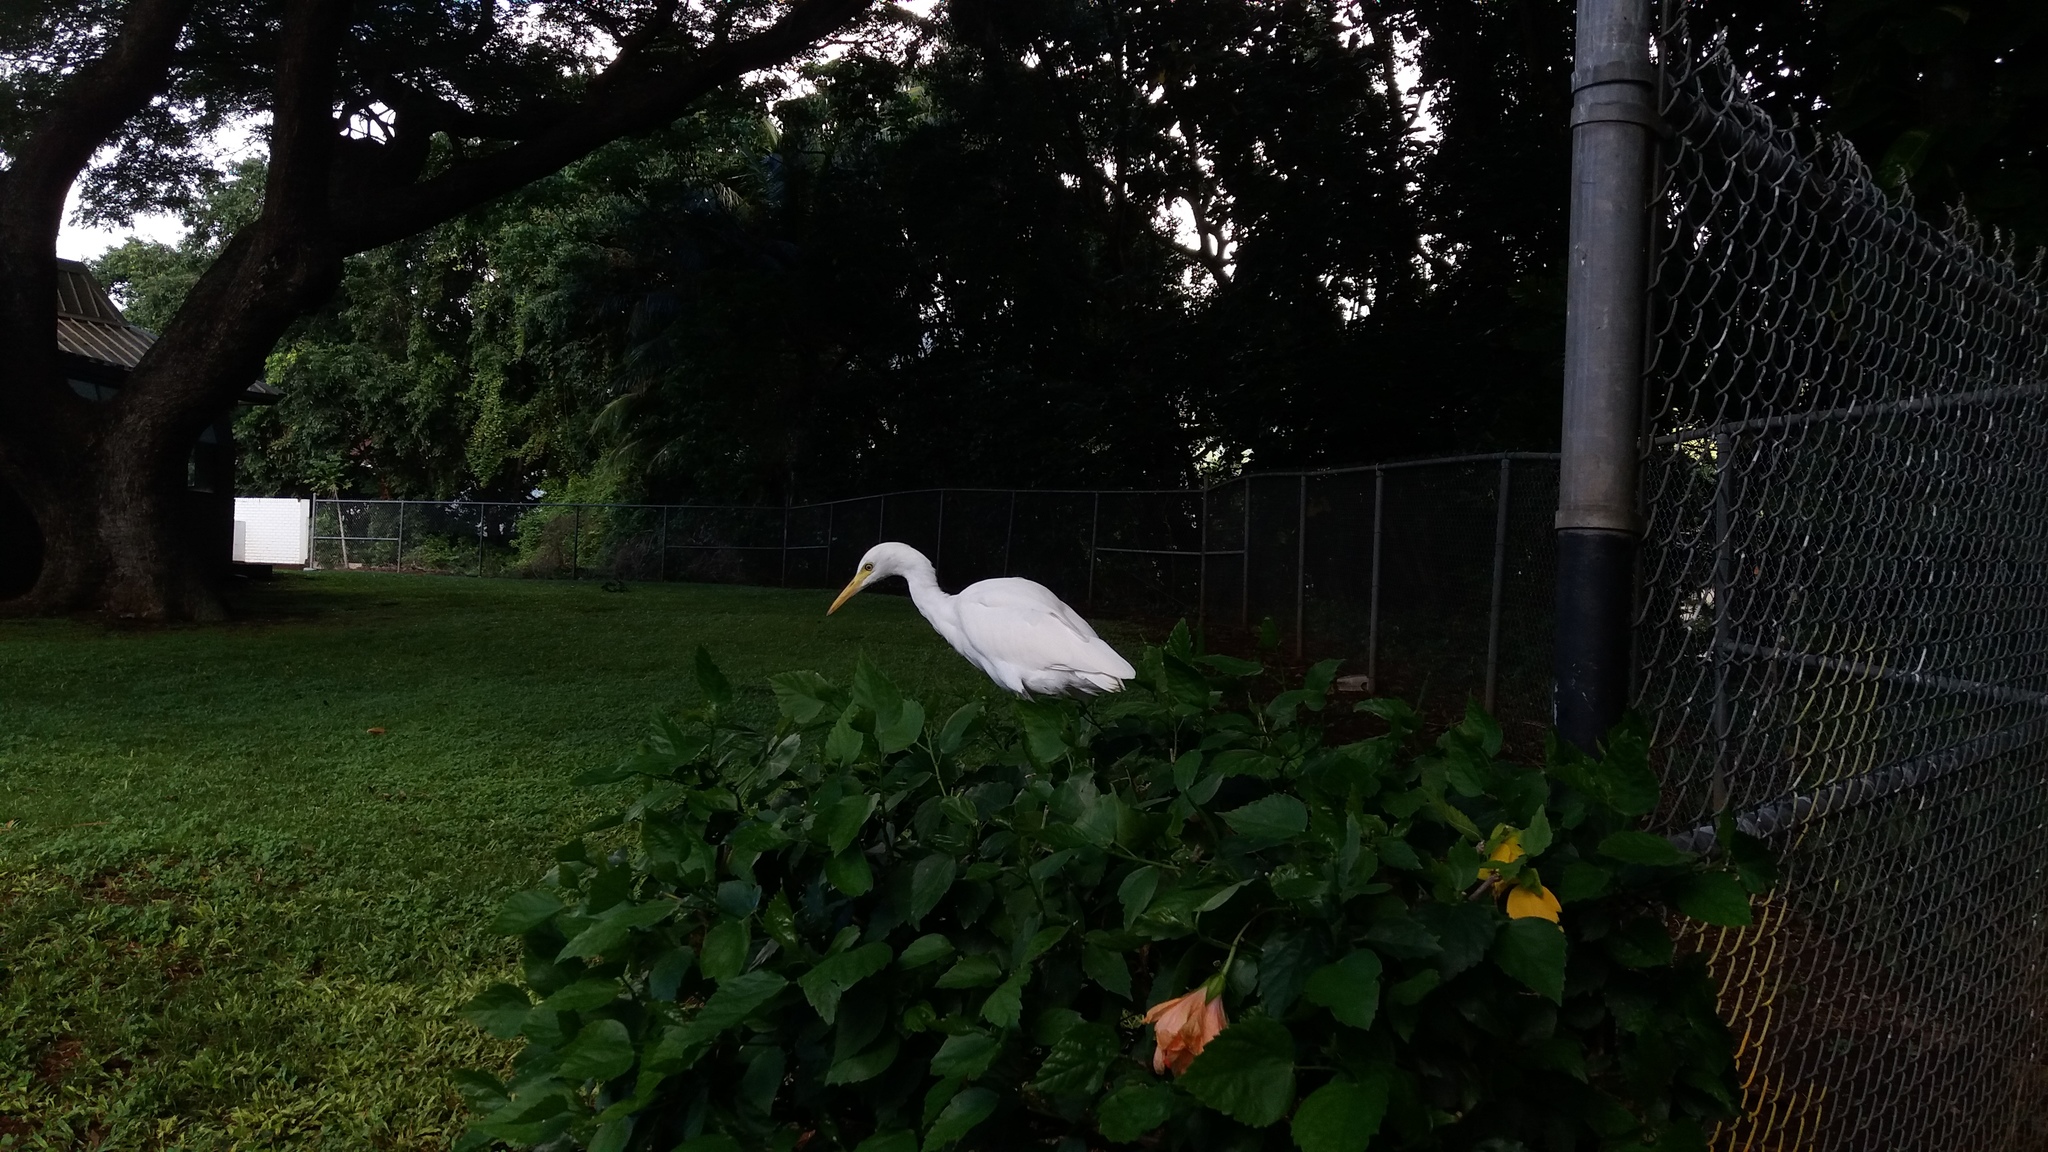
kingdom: Animalia
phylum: Chordata
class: Aves
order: Pelecaniformes
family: Ardeidae
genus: Bubulcus
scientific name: Bubulcus ibis
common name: Cattle egret
